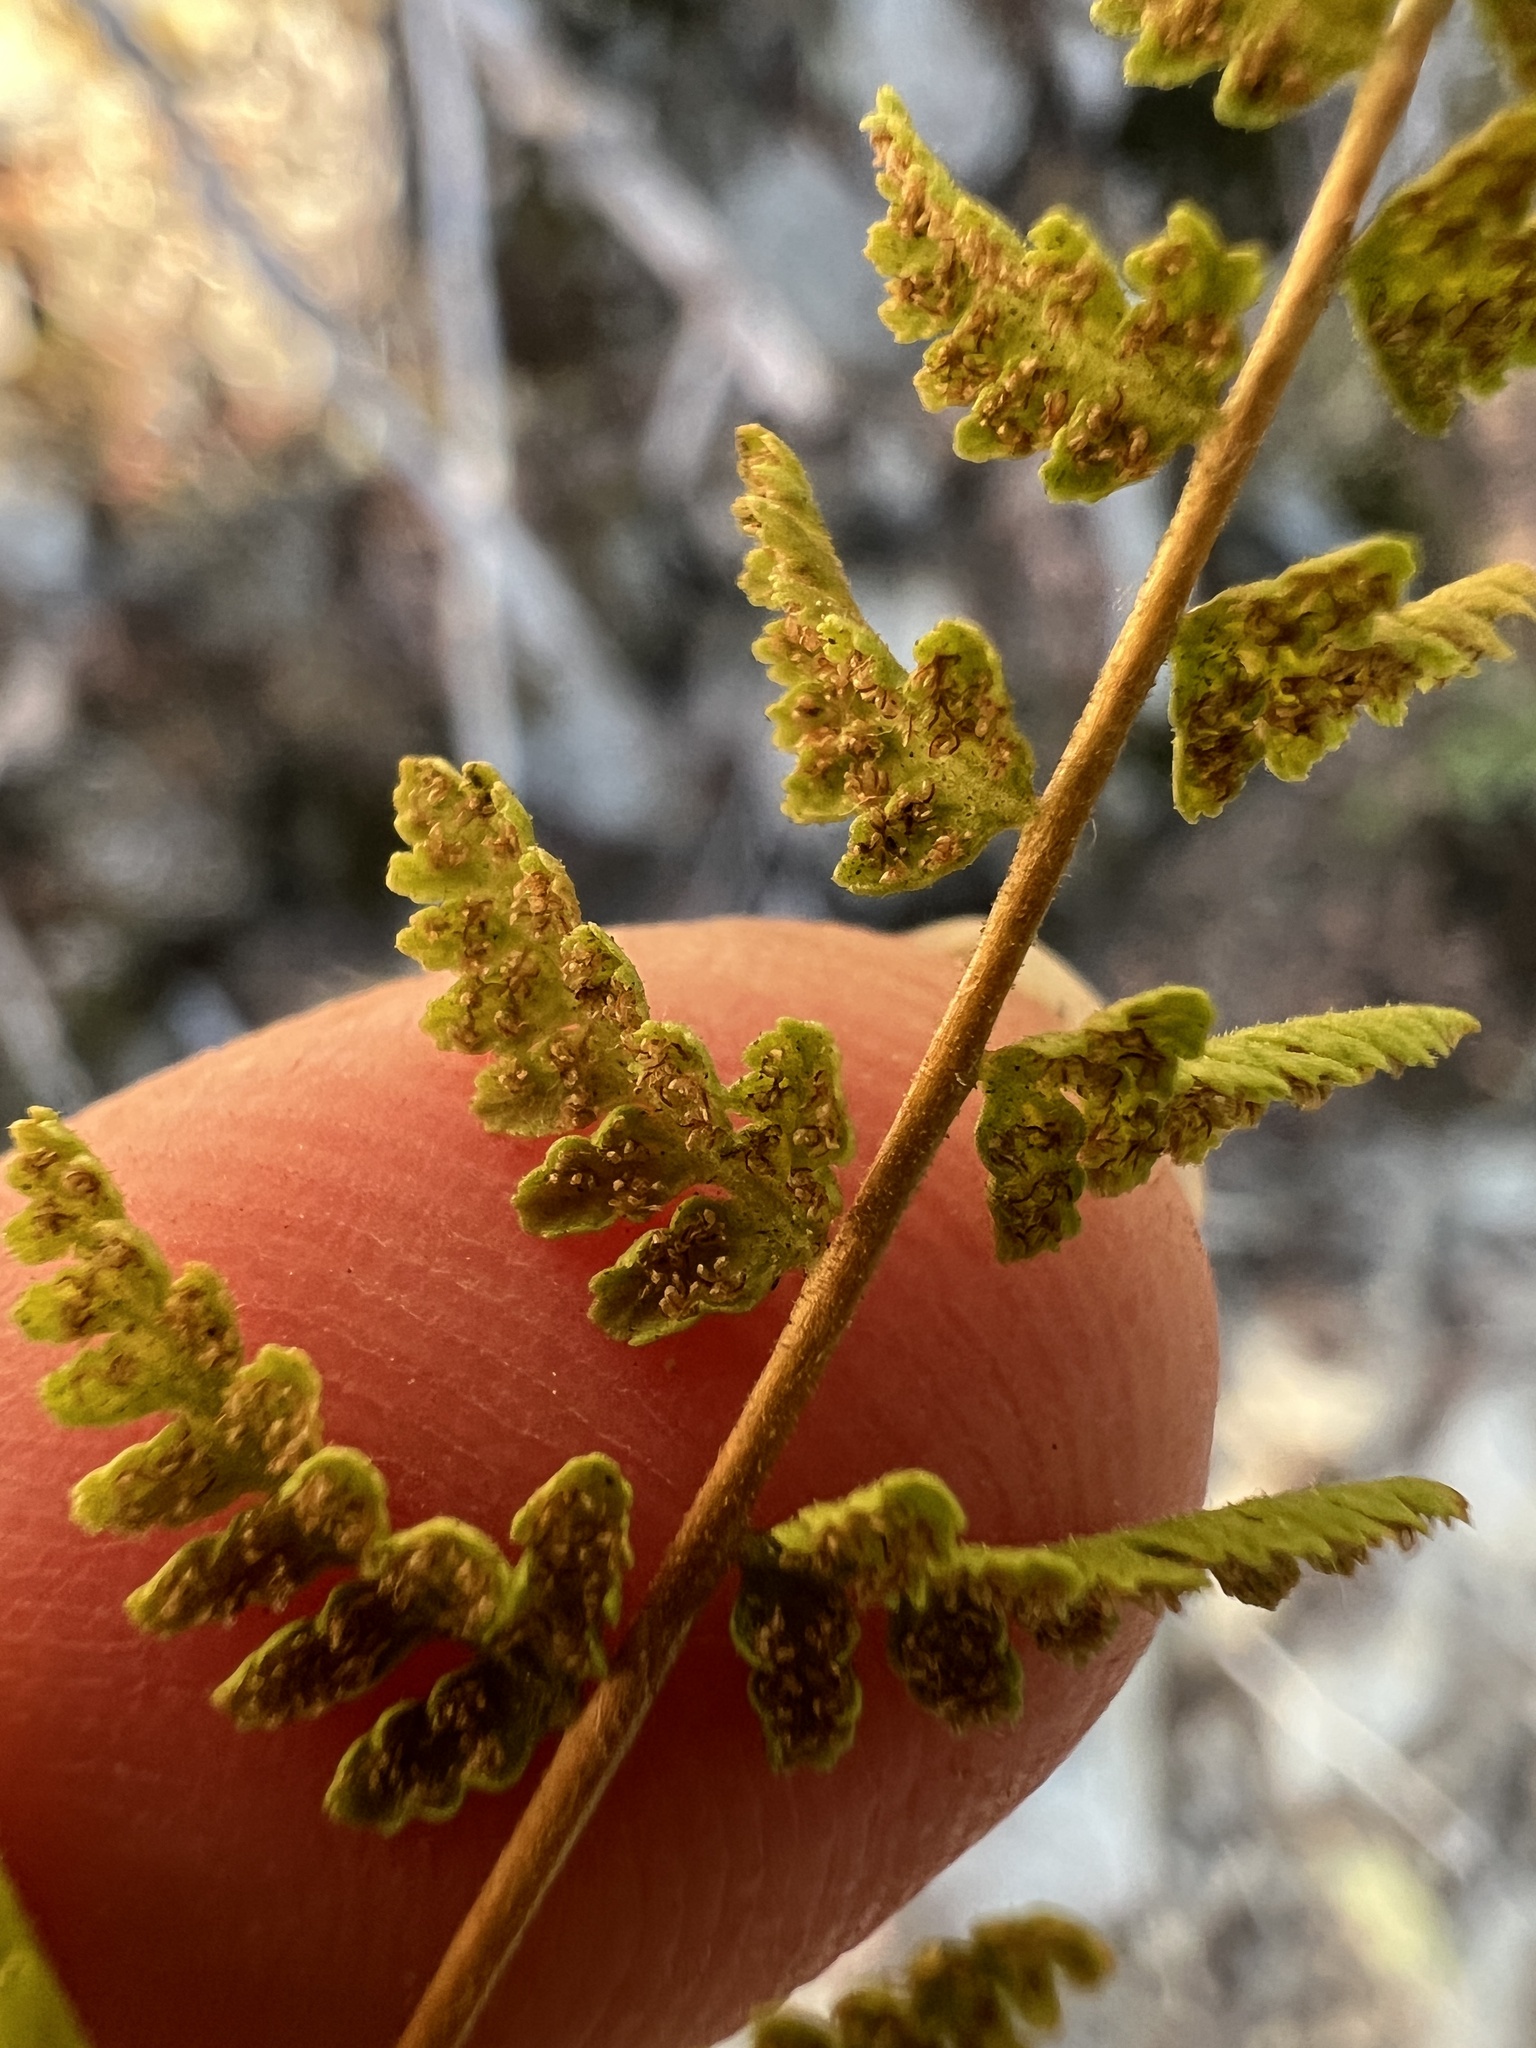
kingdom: Plantae
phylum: Tracheophyta
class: Polypodiopsida
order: Polypodiales
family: Woodsiaceae
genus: Physematium
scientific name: Physematium scopulinum
